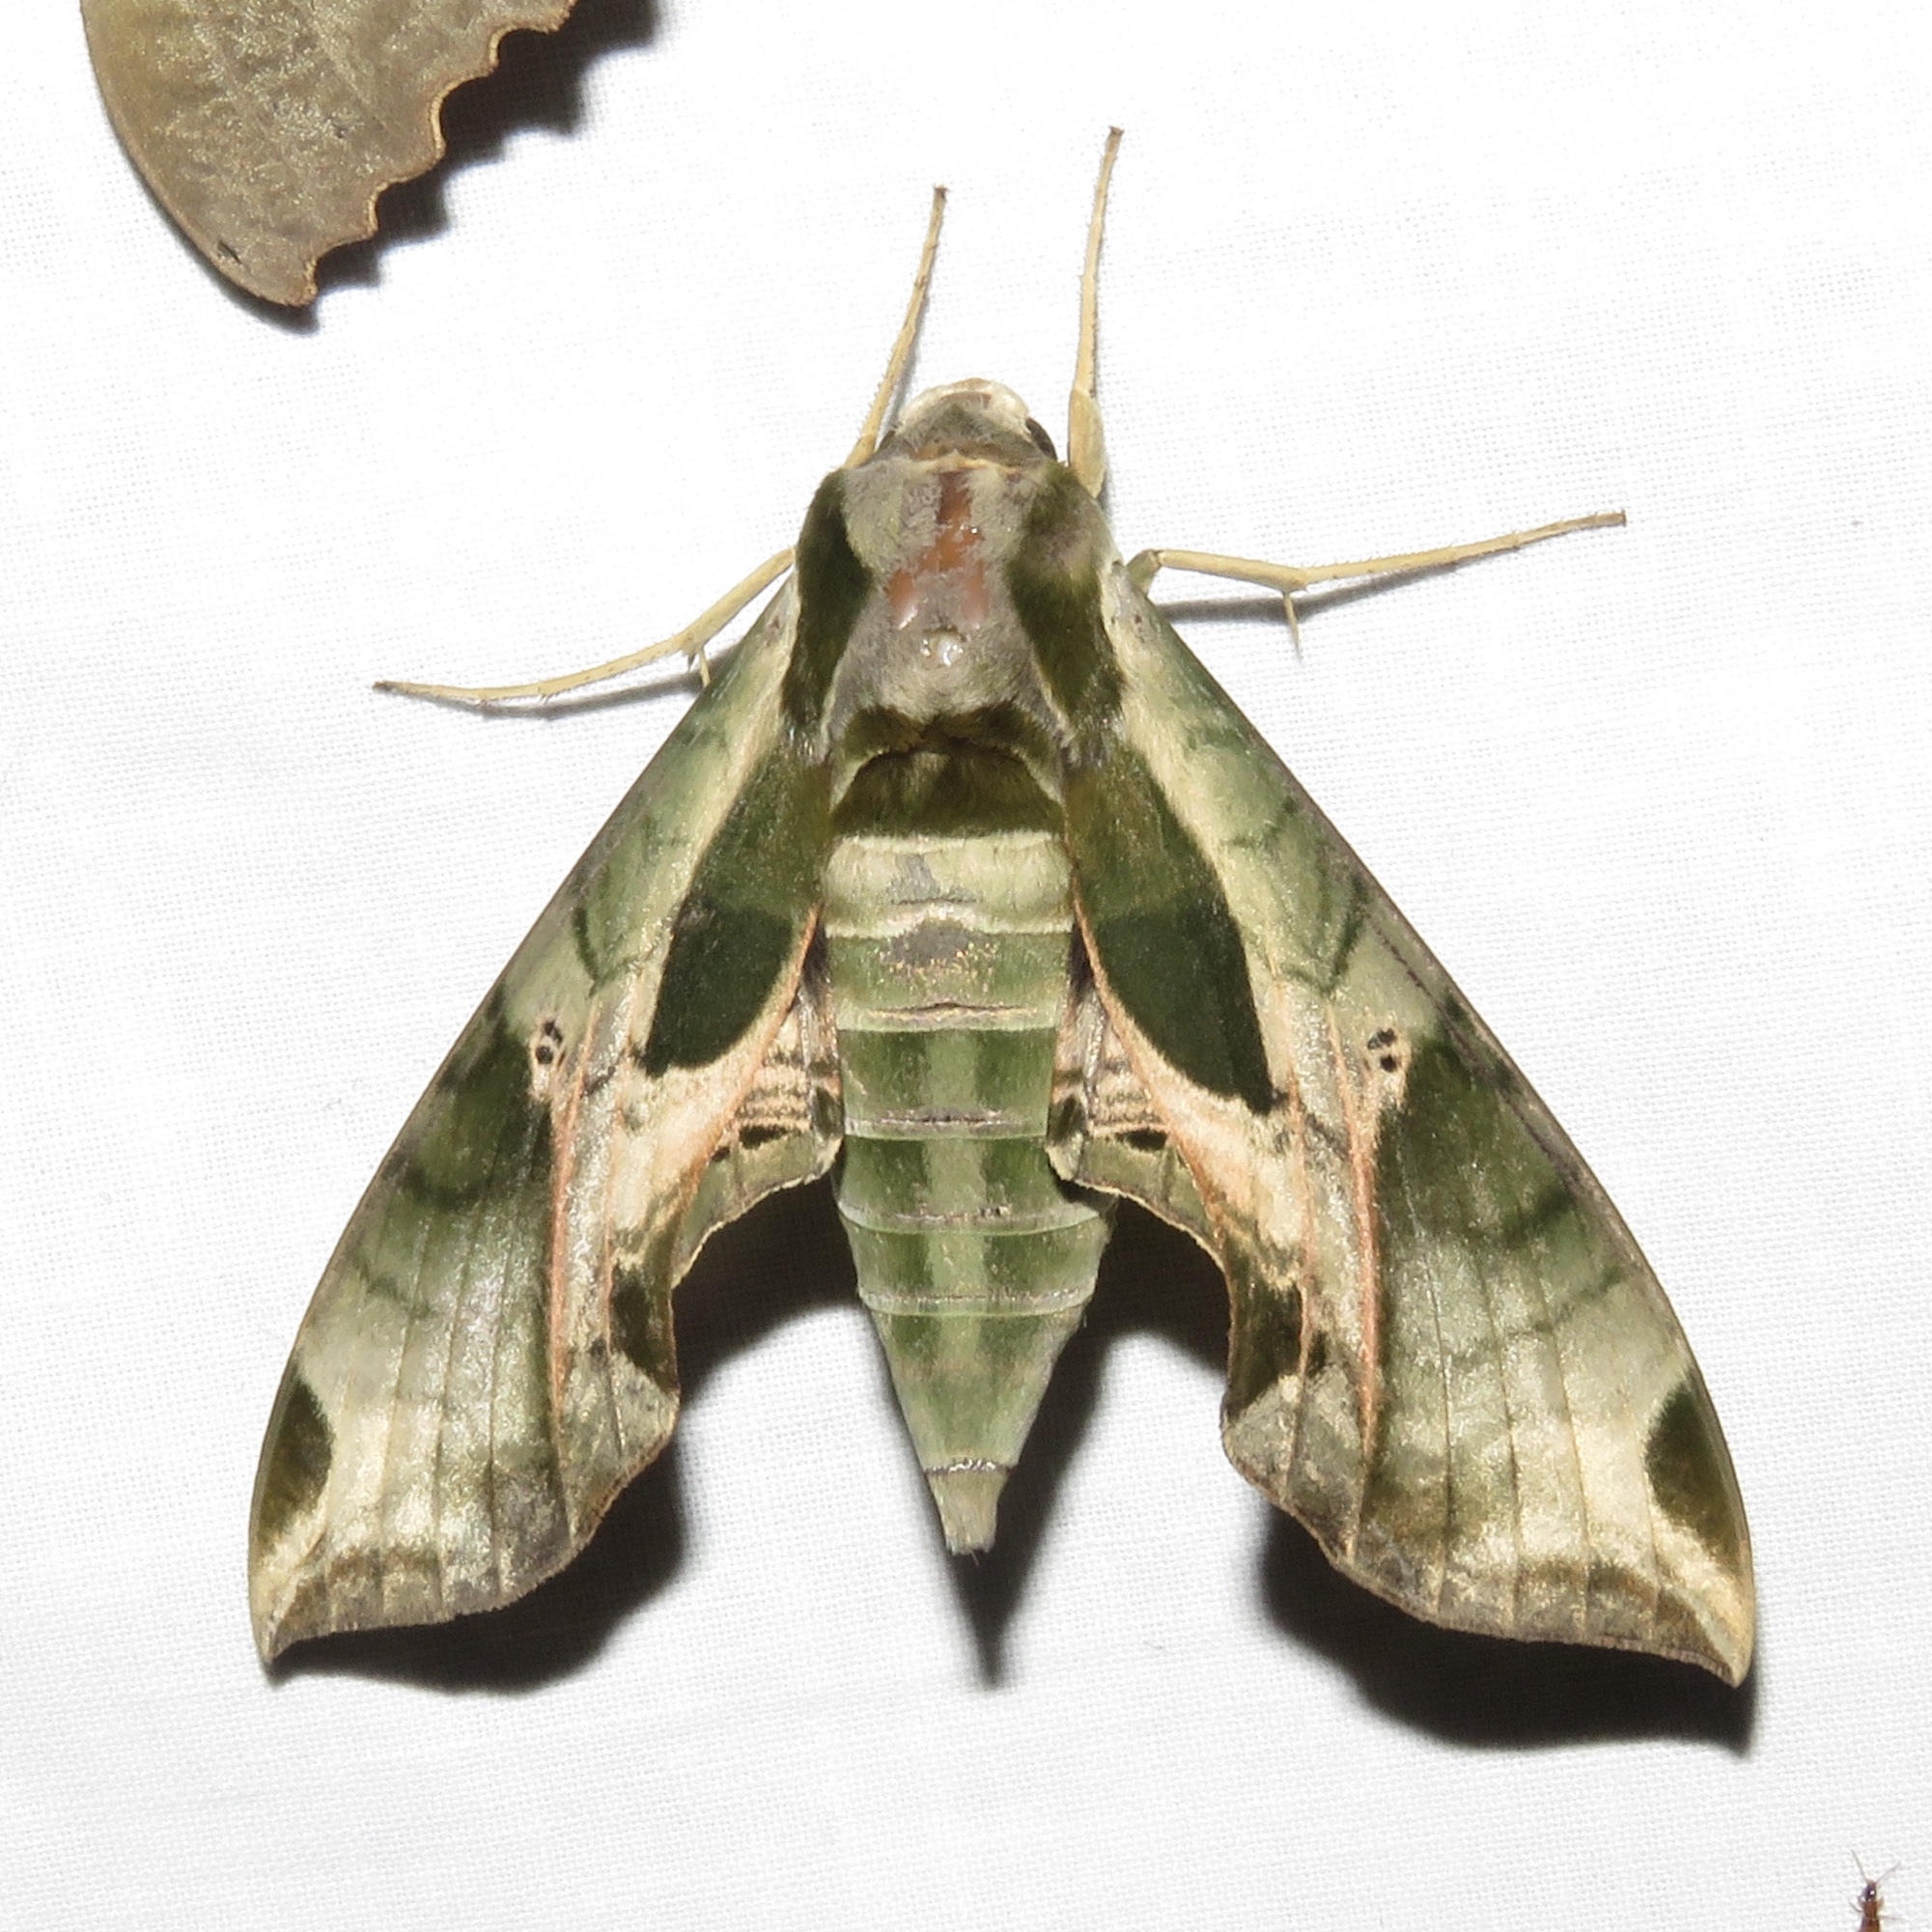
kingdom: Animalia
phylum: Arthropoda
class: Insecta
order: Lepidoptera
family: Sphingidae
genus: Eumorpha
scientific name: Eumorpha pandorus
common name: Pandora sphinx
